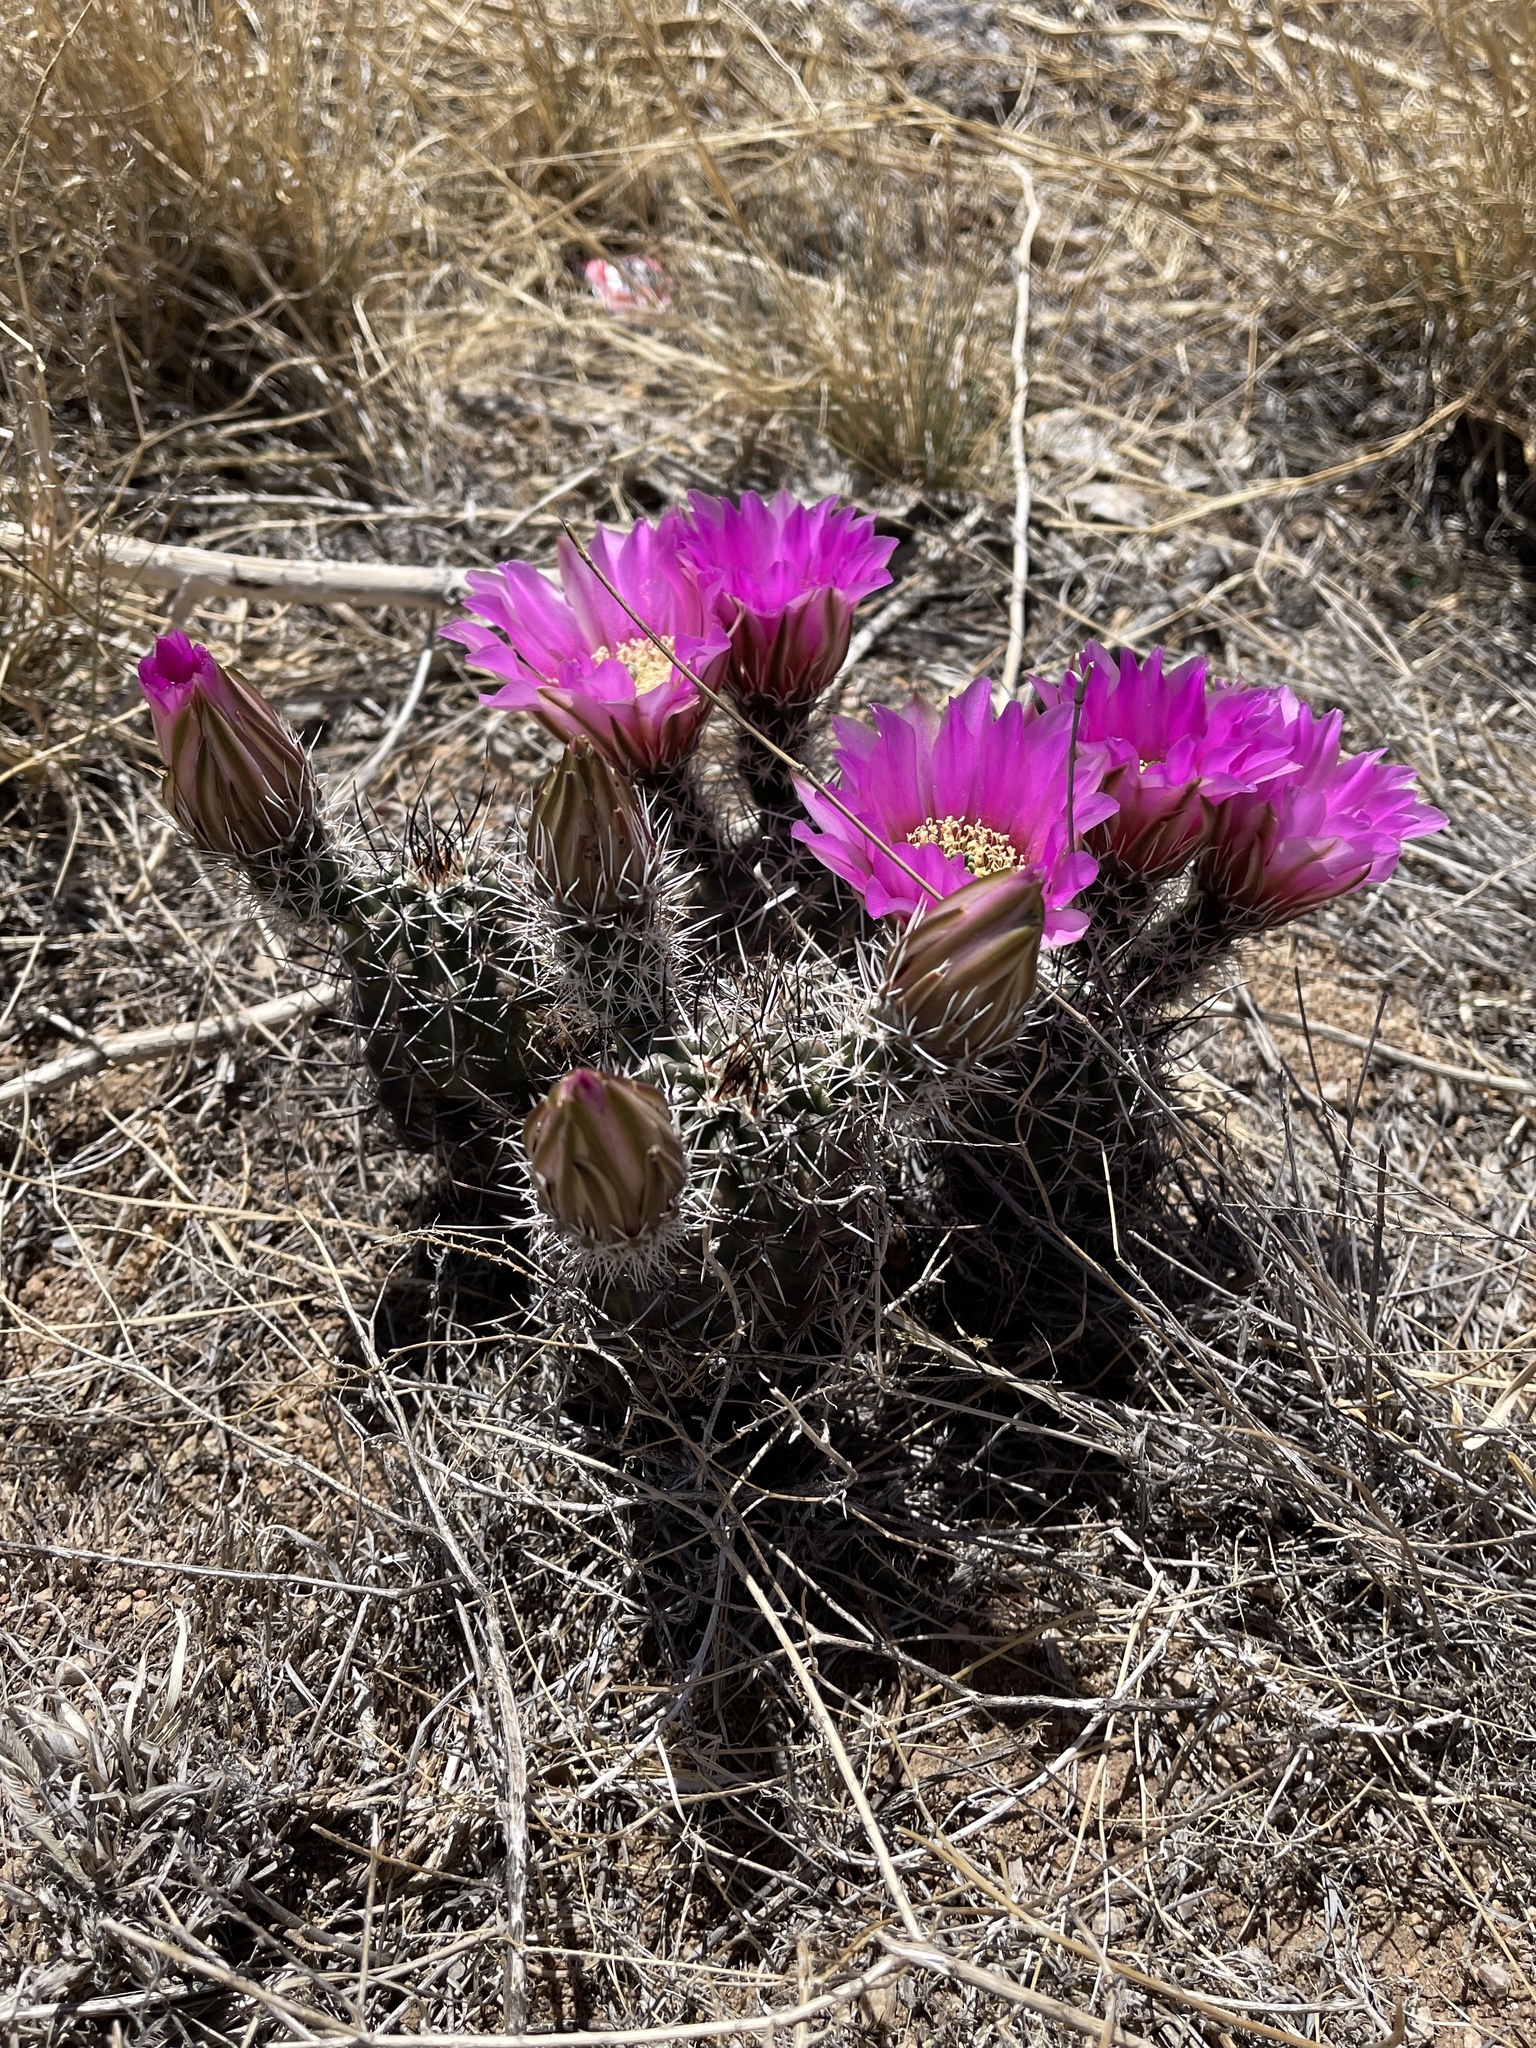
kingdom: Plantae
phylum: Tracheophyta
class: Magnoliopsida
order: Caryophyllales
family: Cactaceae
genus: Echinocereus
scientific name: Echinocereus fendleri
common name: Fendler's hedgehog cactus
